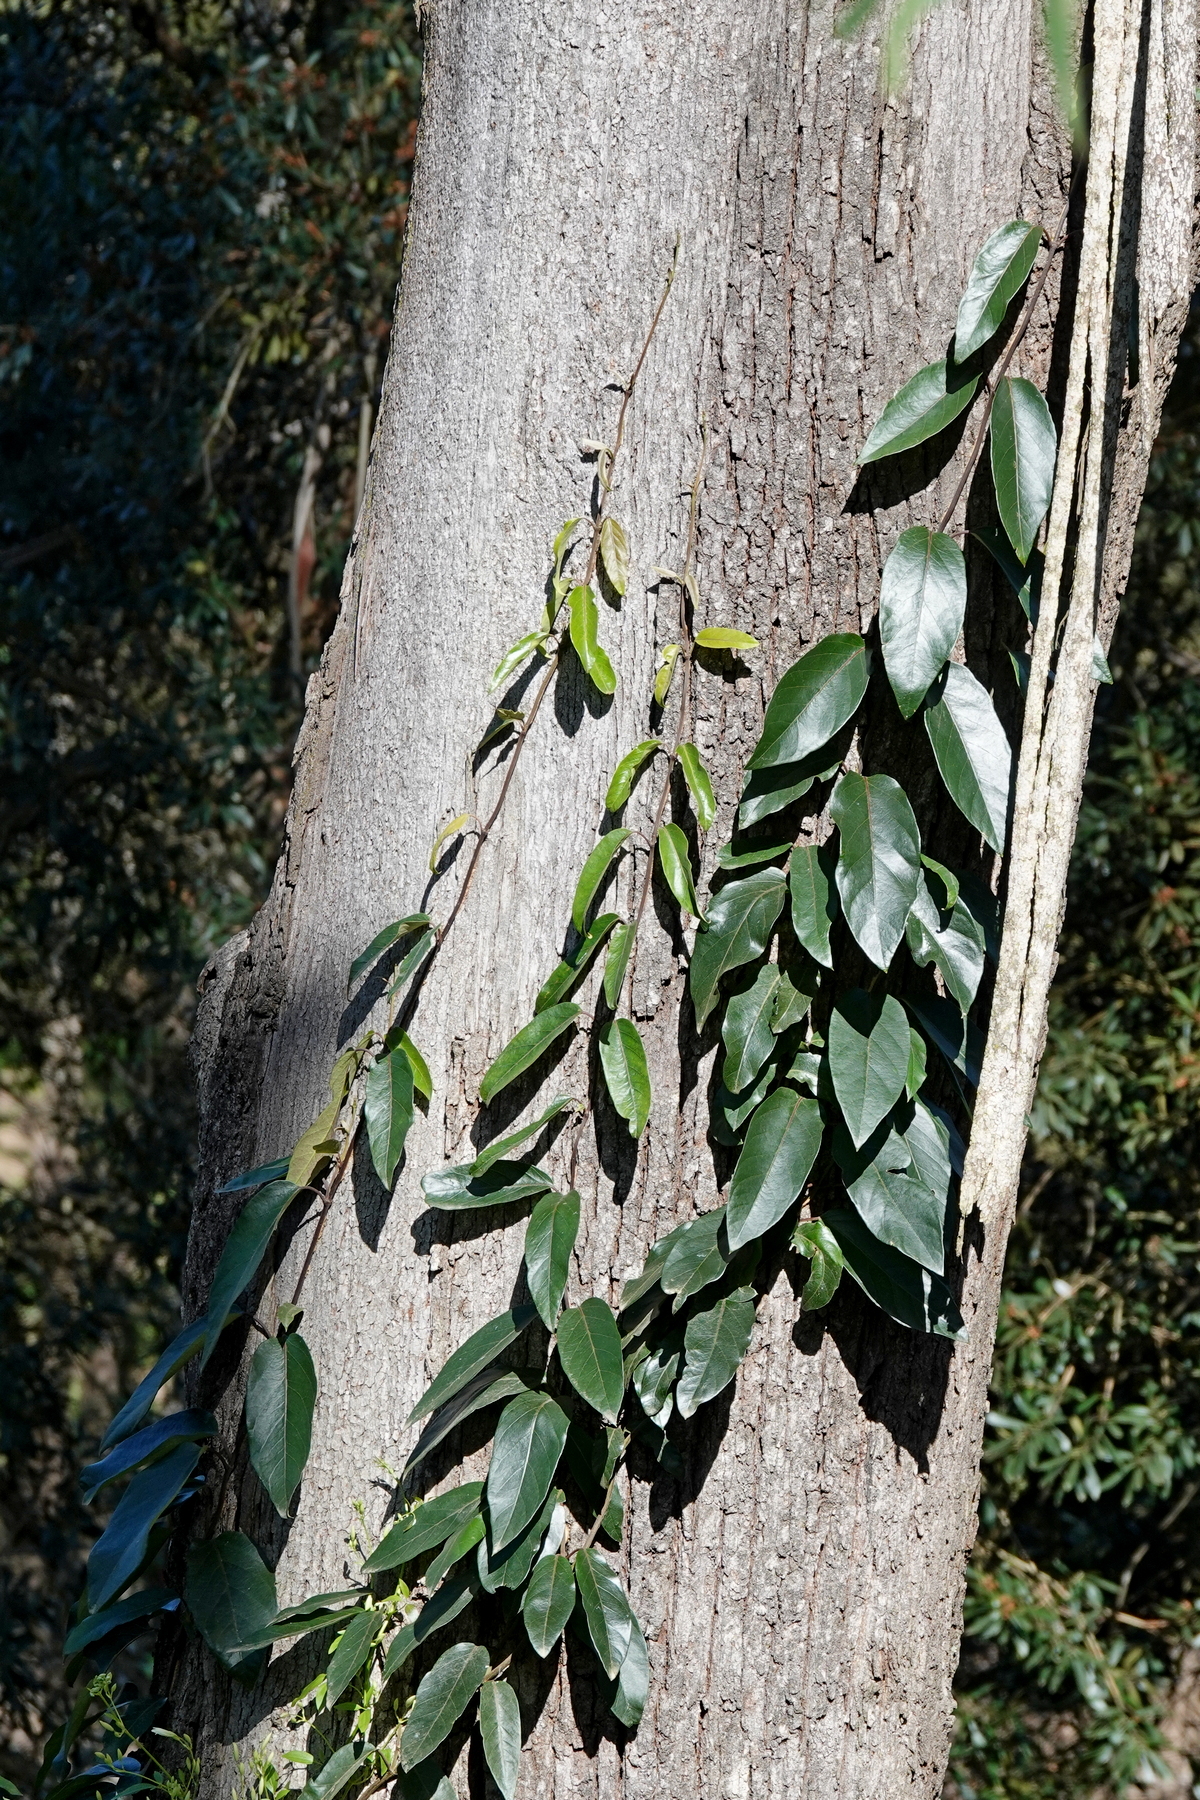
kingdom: Plantae
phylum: Tracheophyta
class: Magnoliopsida
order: Gentianales
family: Apocynaceae
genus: Parsonsia
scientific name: Parsonsia straminea
